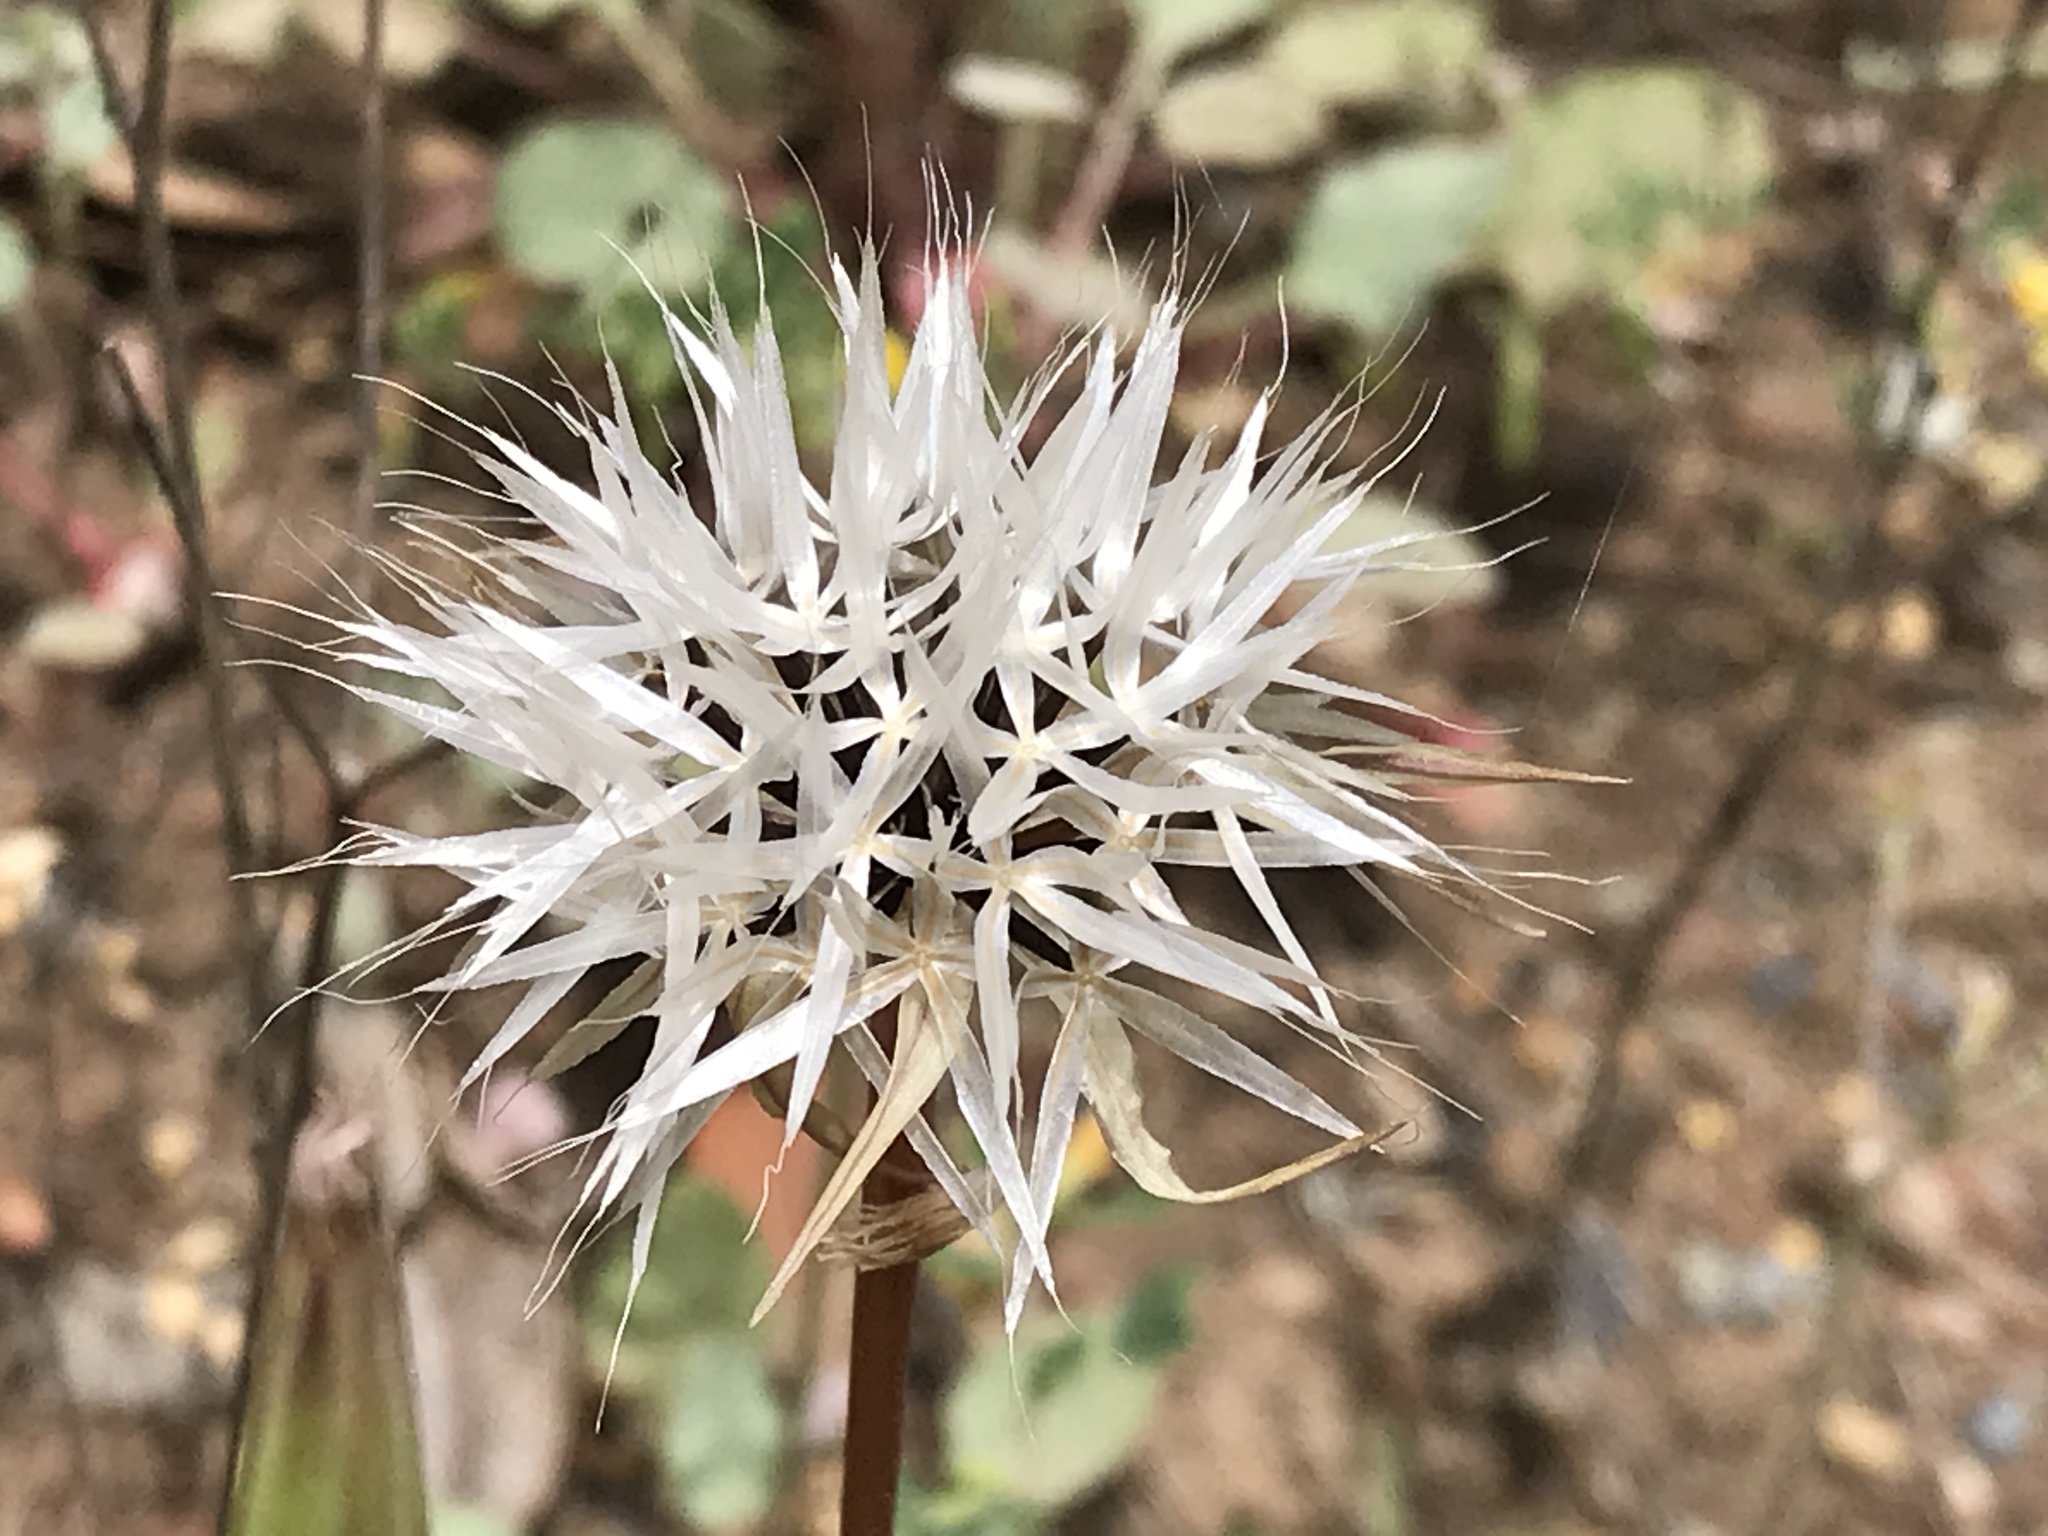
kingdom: Plantae
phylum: Tracheophyta
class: Magnoliopsida
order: Asterales
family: Asteraceae
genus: Microseris
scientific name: Microseris lindleyi
